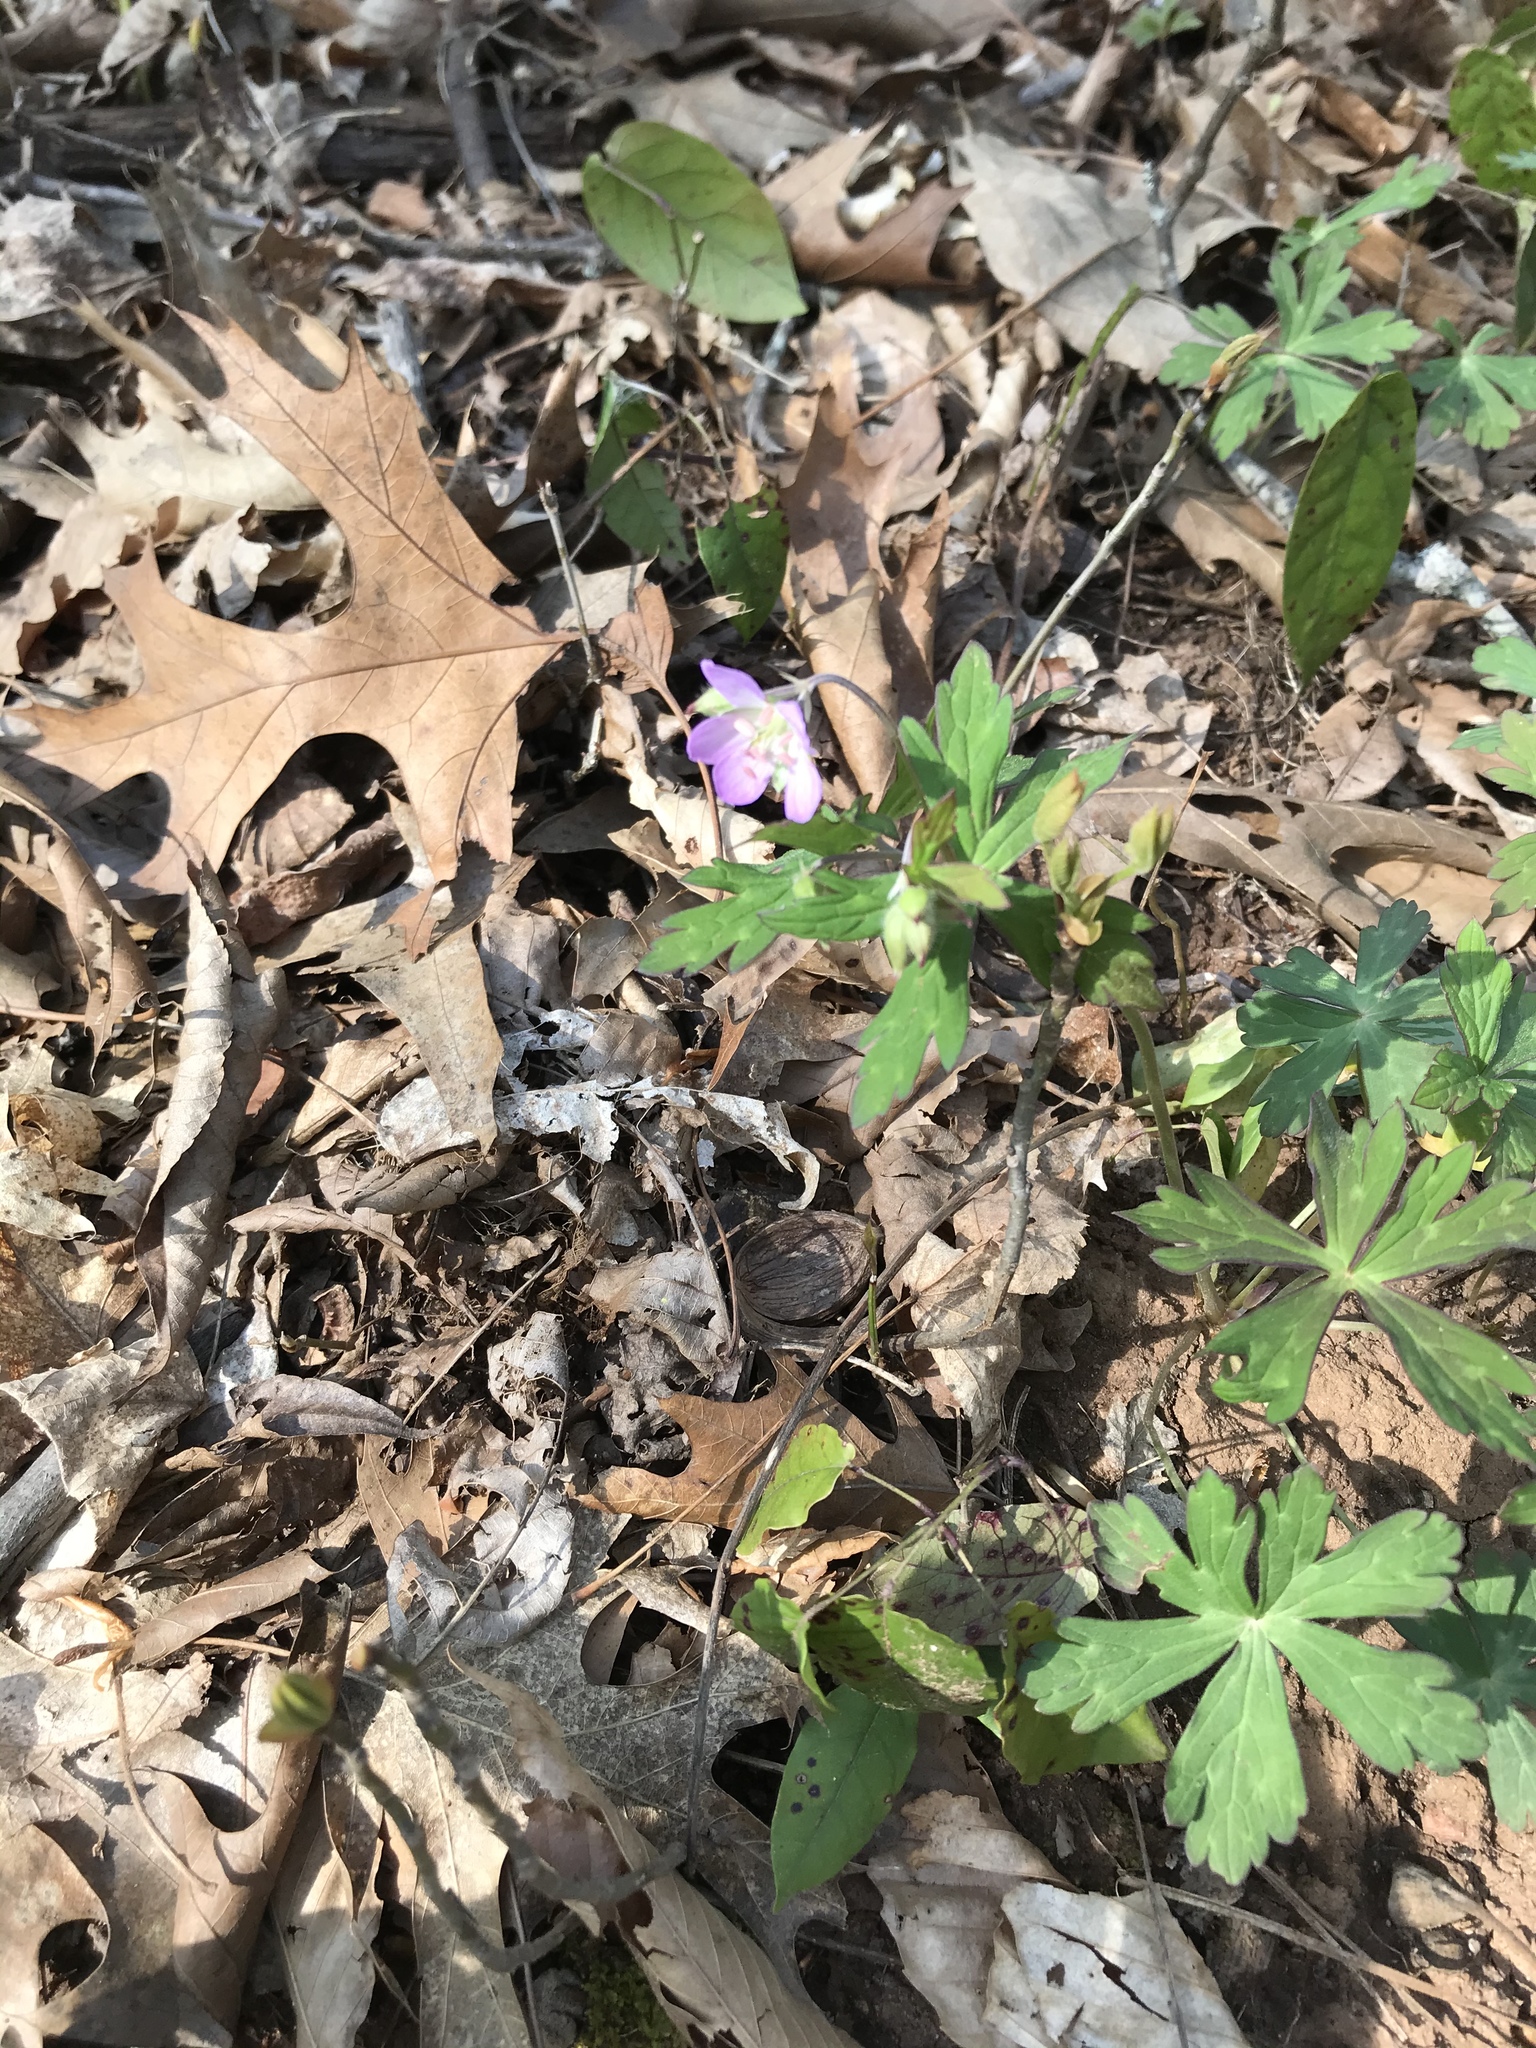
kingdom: Plantae
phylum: Tracheophyta
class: Magnoliopsida
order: Geraniales
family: Geraniaceae
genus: Geranium
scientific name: Geranium maculatum
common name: Spotted geranium
